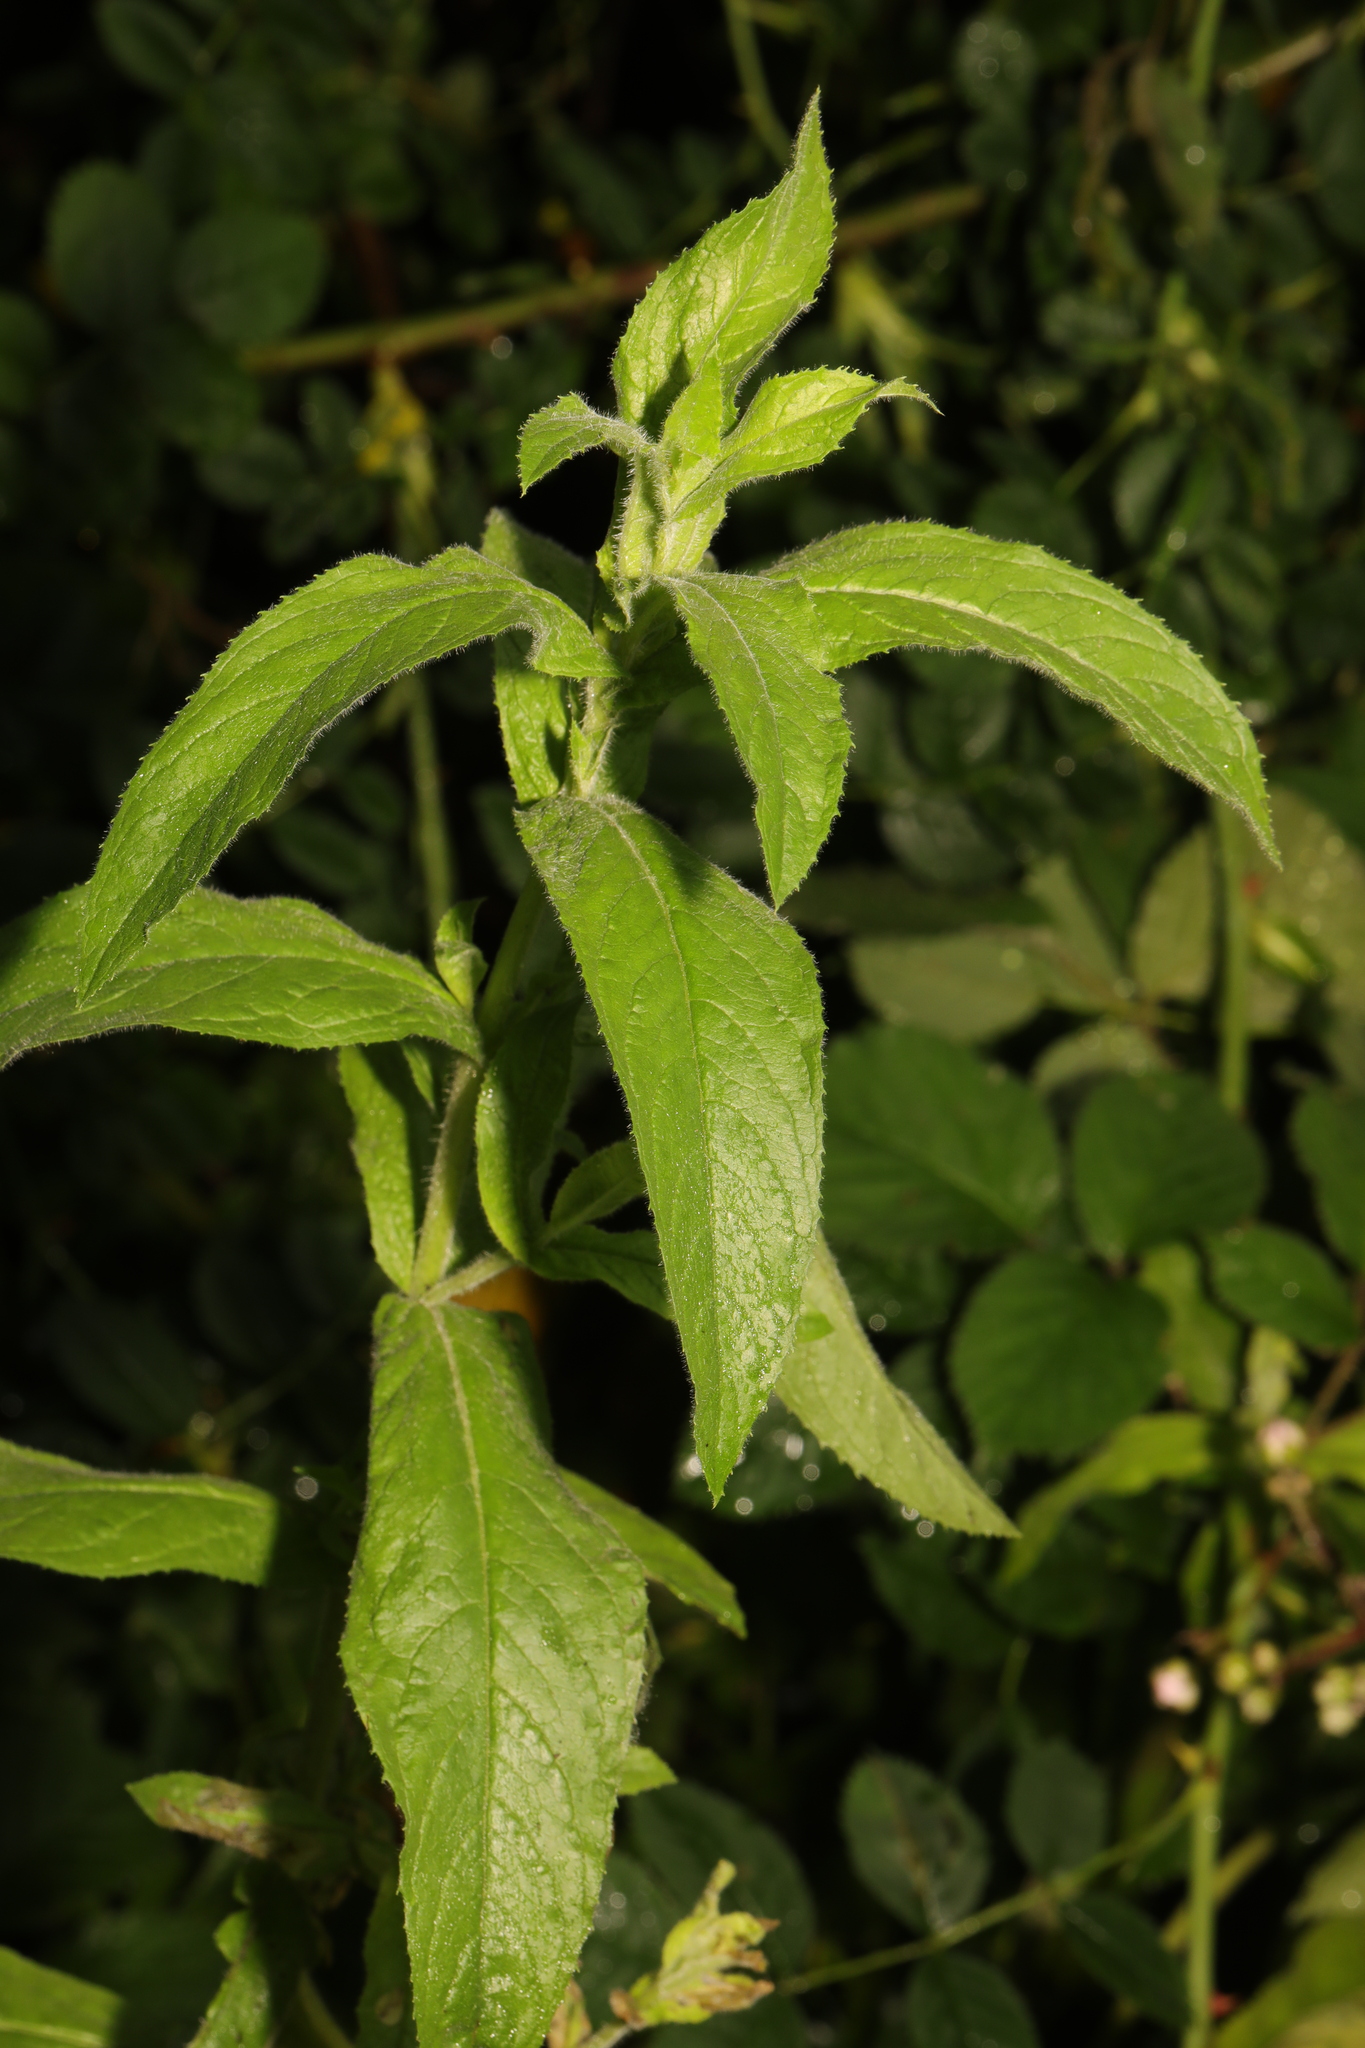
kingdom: Plantae
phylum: Tracheophyta
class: Magnoliopsida
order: Myrtales
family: Onagraceae
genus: Epilobium
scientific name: Epilobium hirsutum
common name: Great willowherb
